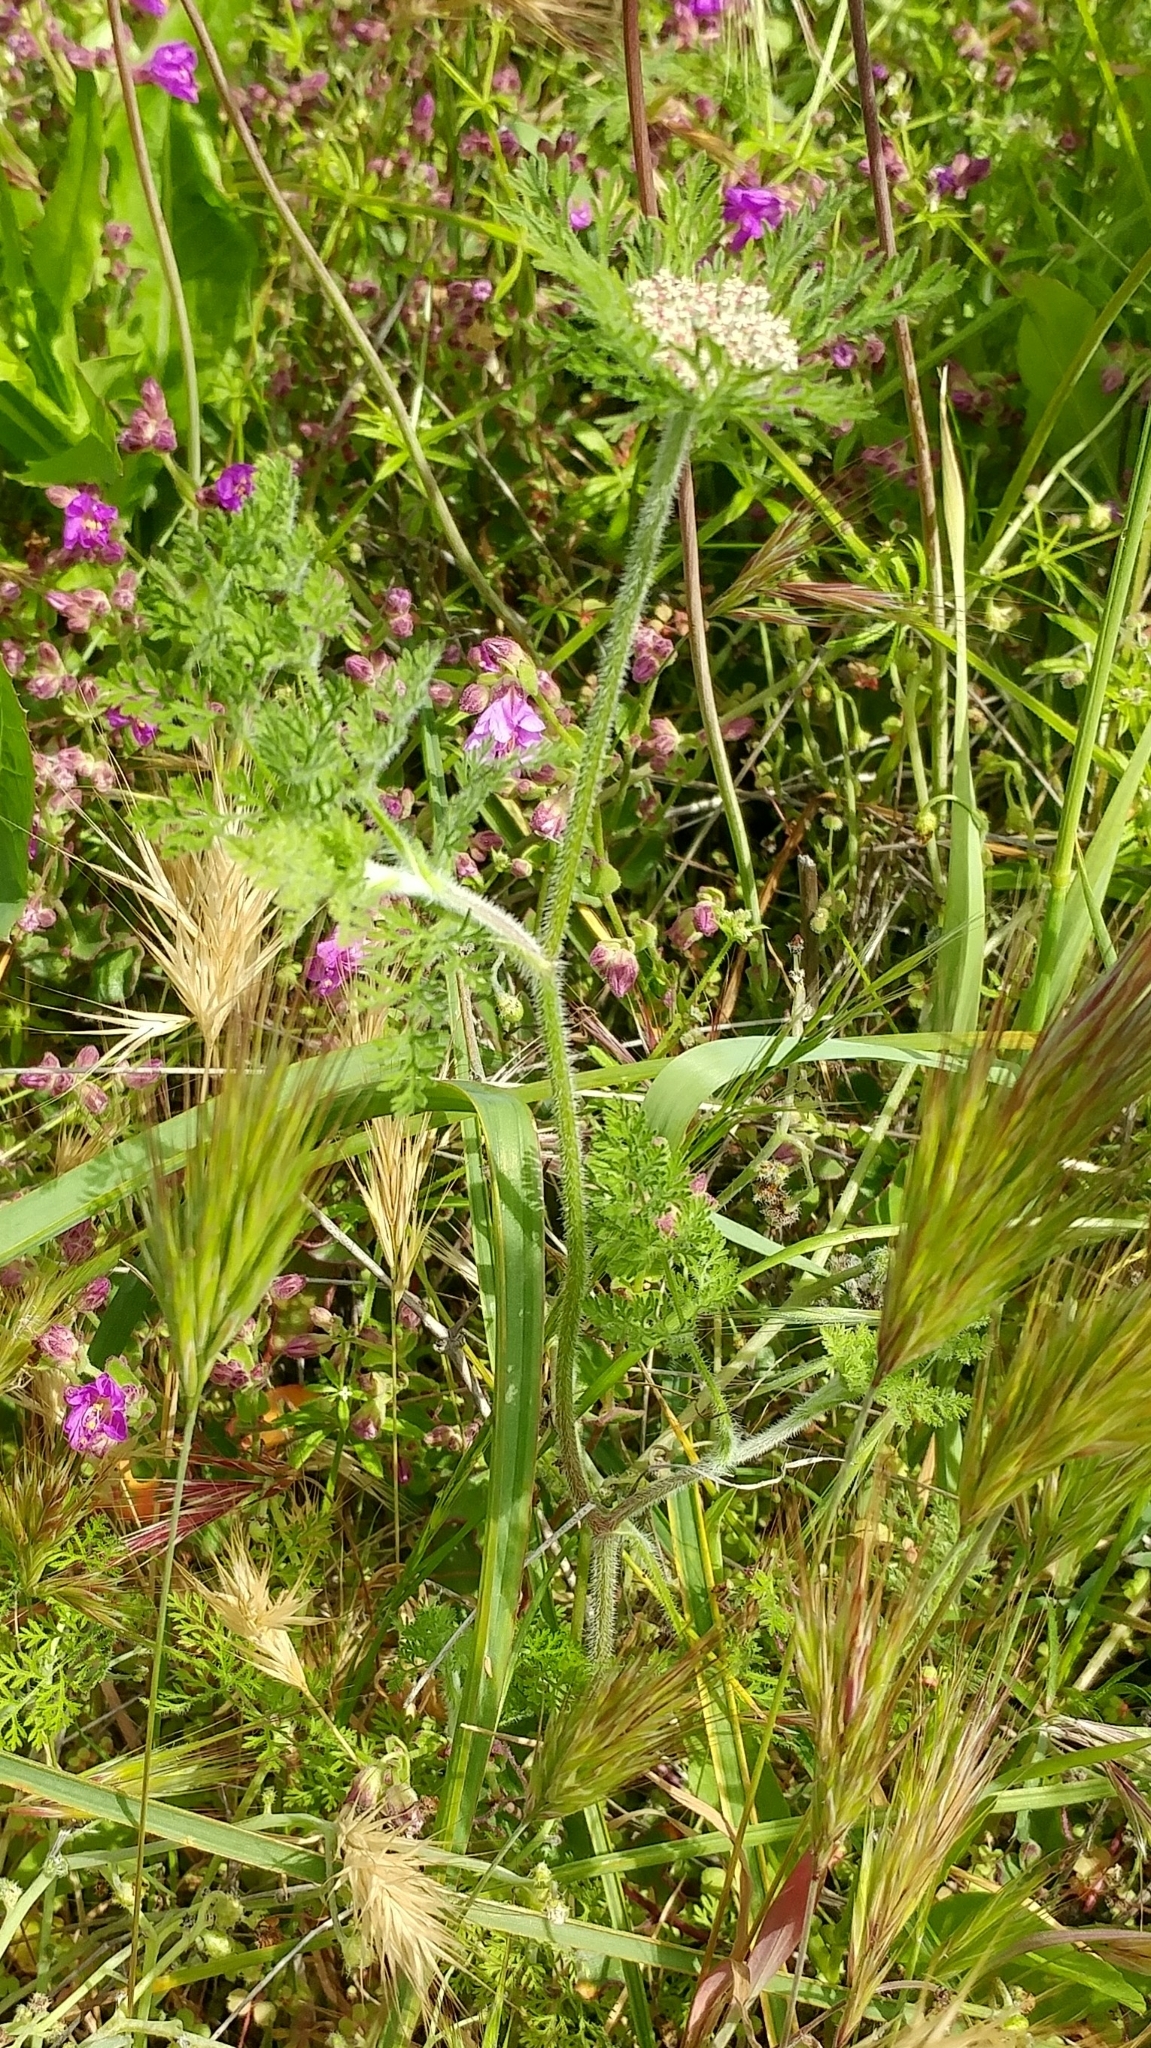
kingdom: Plantae
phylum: Tracheophyta
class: Magnoliopsida
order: Apiales
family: Apiaceae
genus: Daucus
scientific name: Daucus pusillus
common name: Southwest wild carrot
